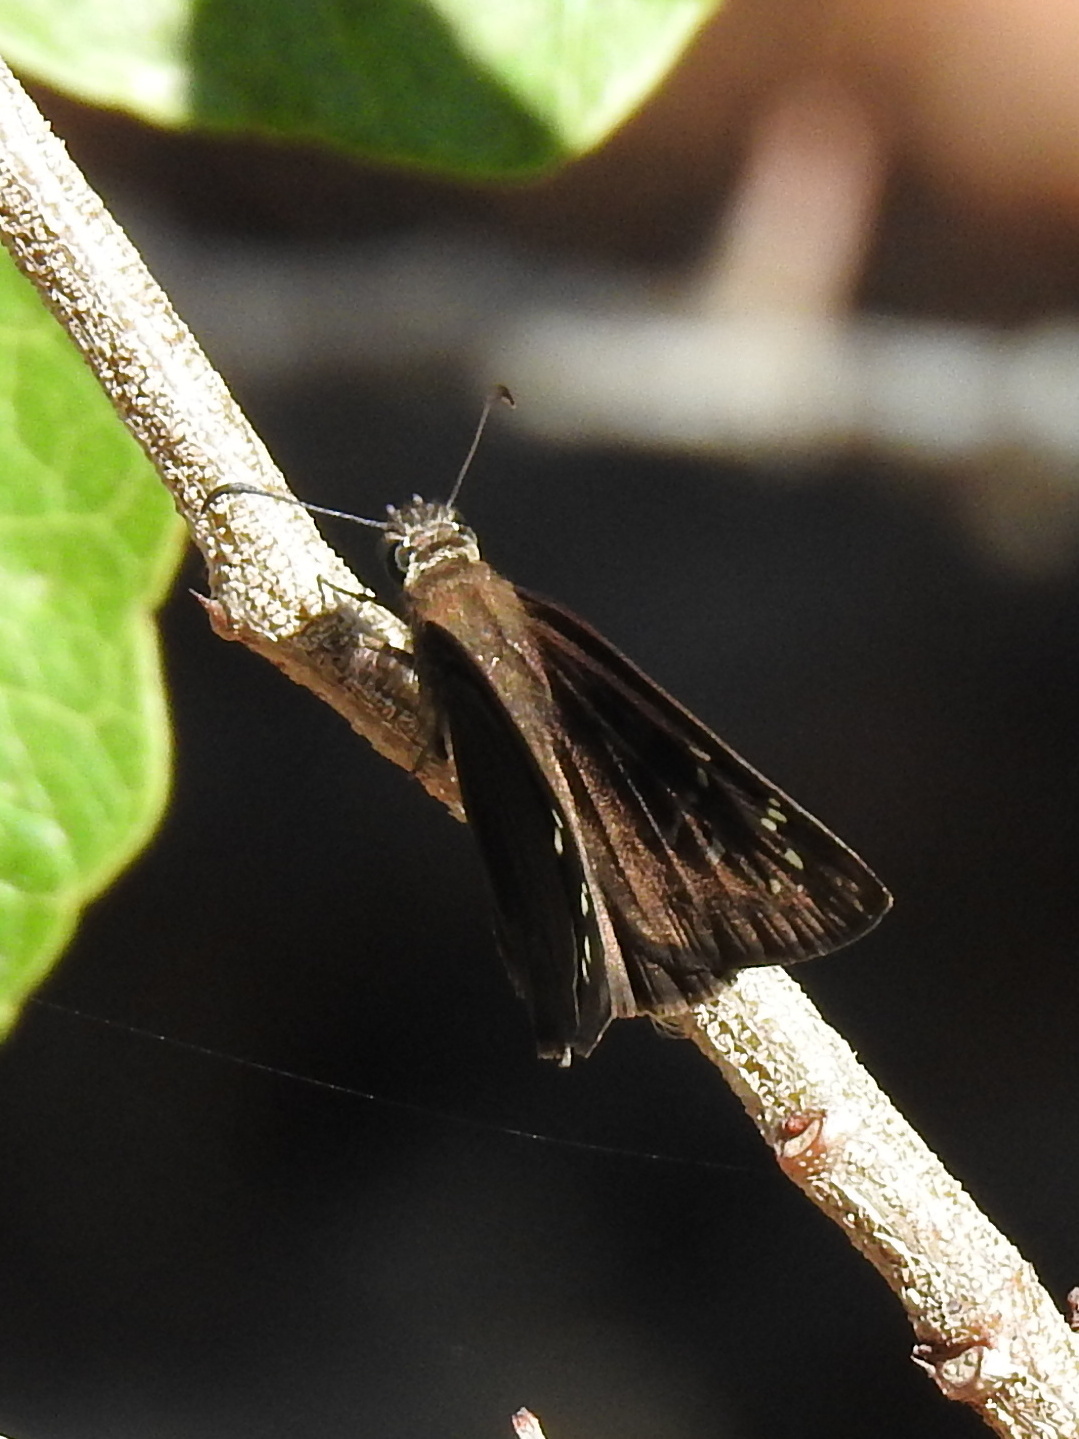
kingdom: Animalia
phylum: Arthropoda
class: Insecta
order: Lepidoptera
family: Hesperiidae
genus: Ephyriades
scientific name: Ephyriades brunnea
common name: Florida duskywing
